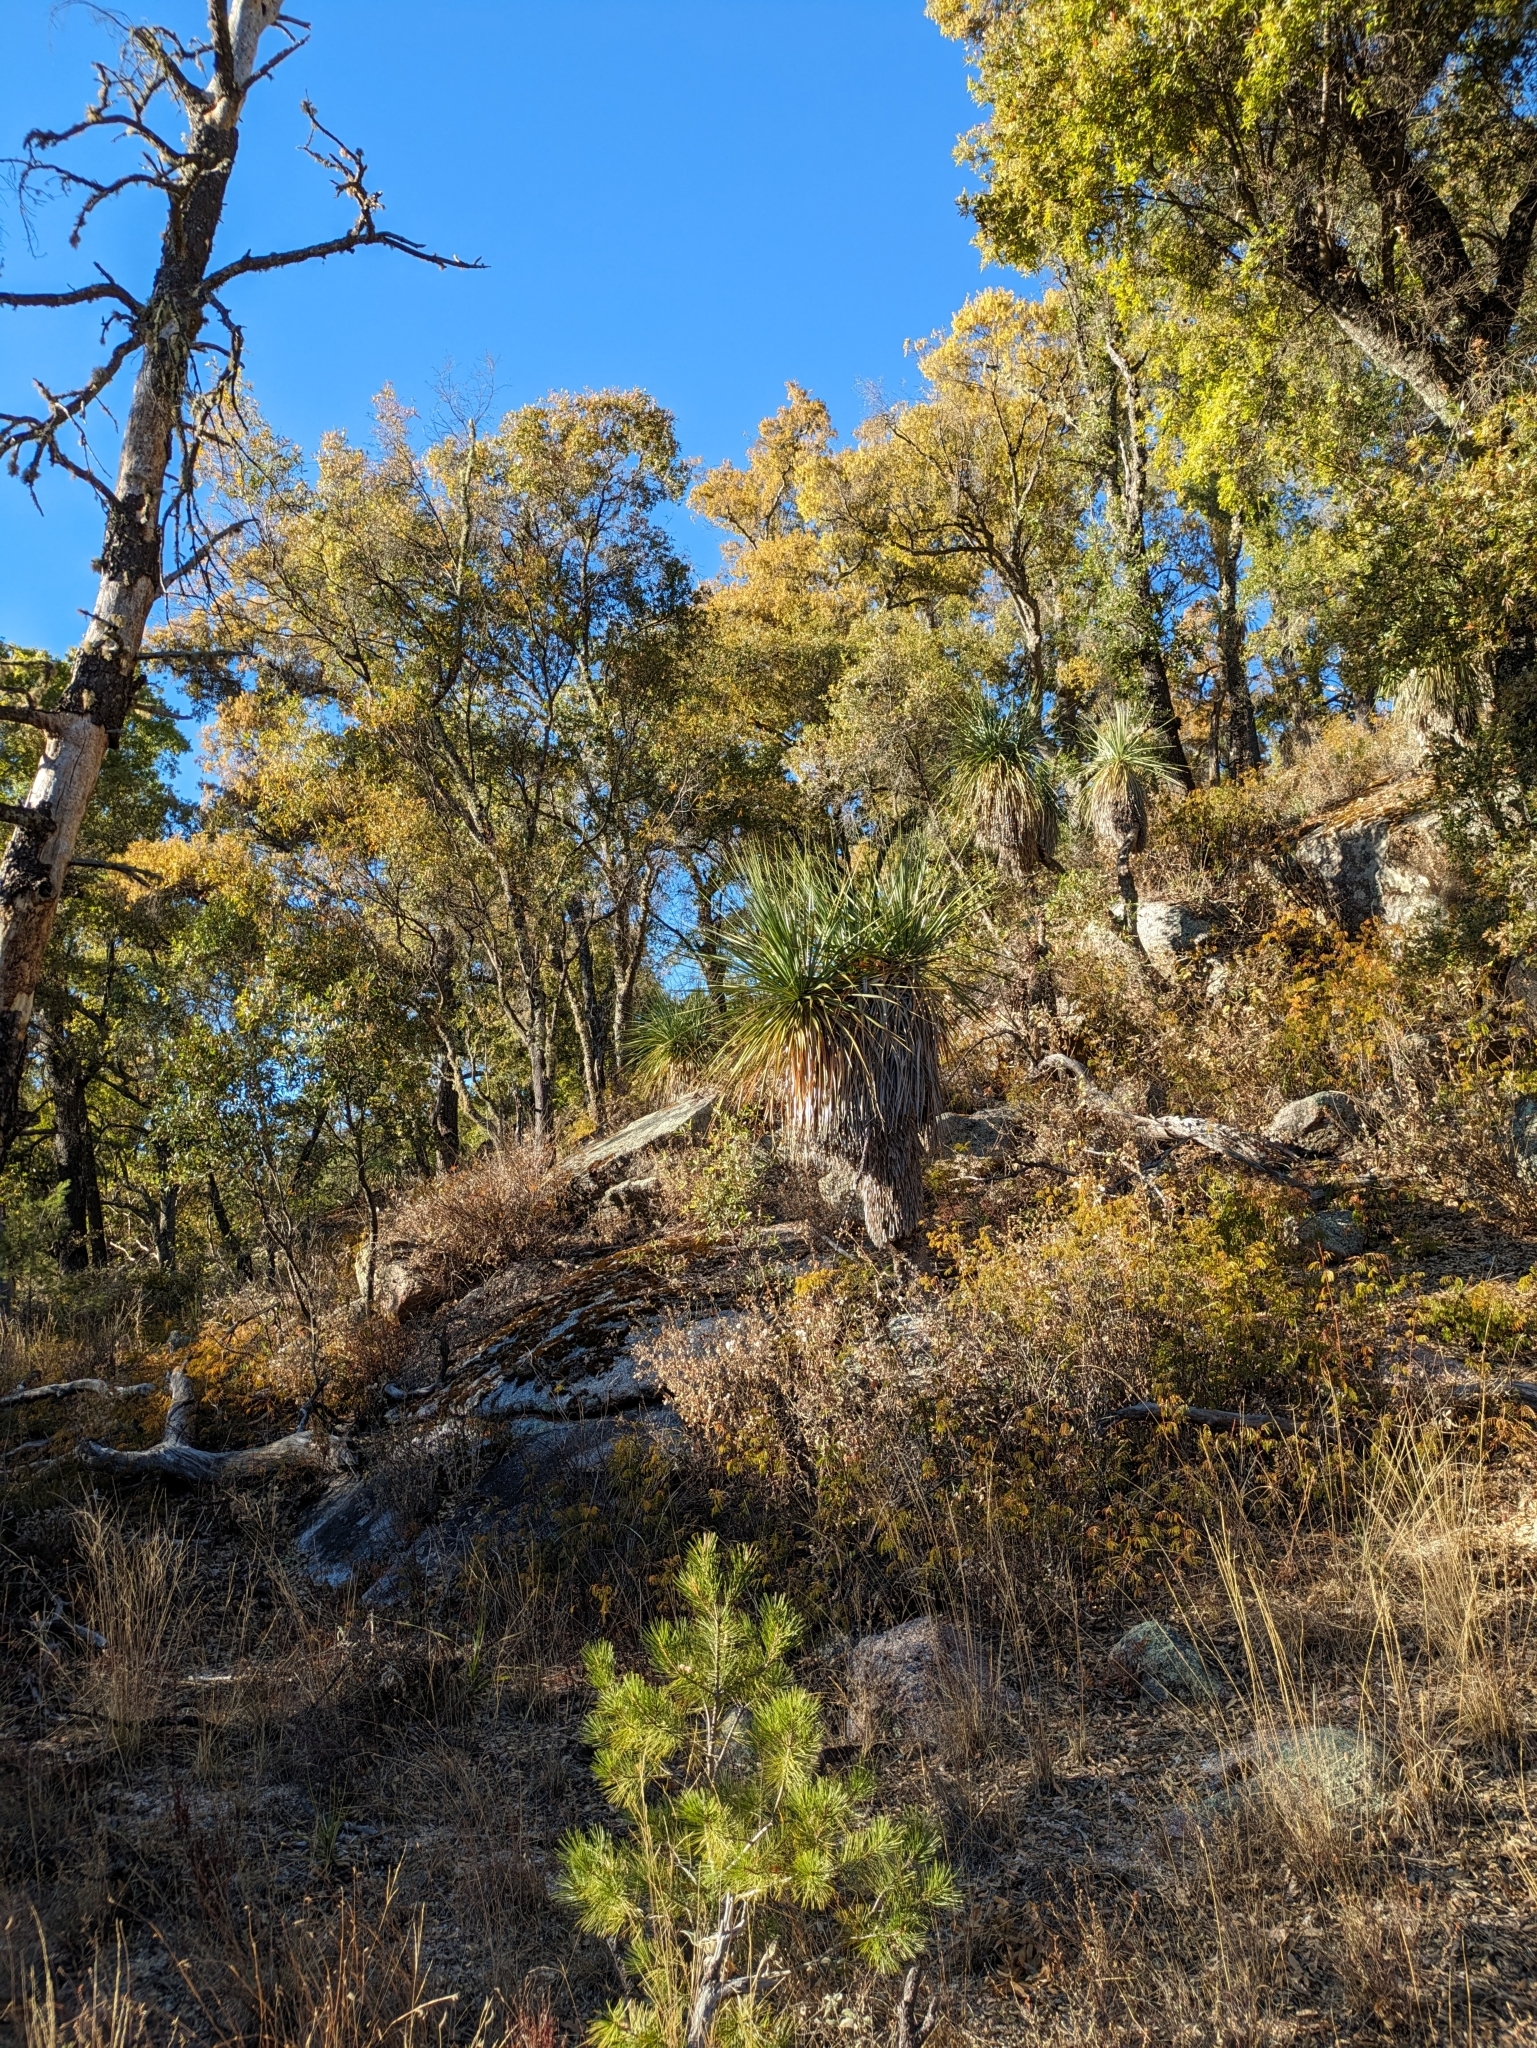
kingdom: Plantae
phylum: Tracheophyta
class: Magnoliopsida
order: Fagales
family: Fagaceae
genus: Quercus
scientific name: Quercus devia
